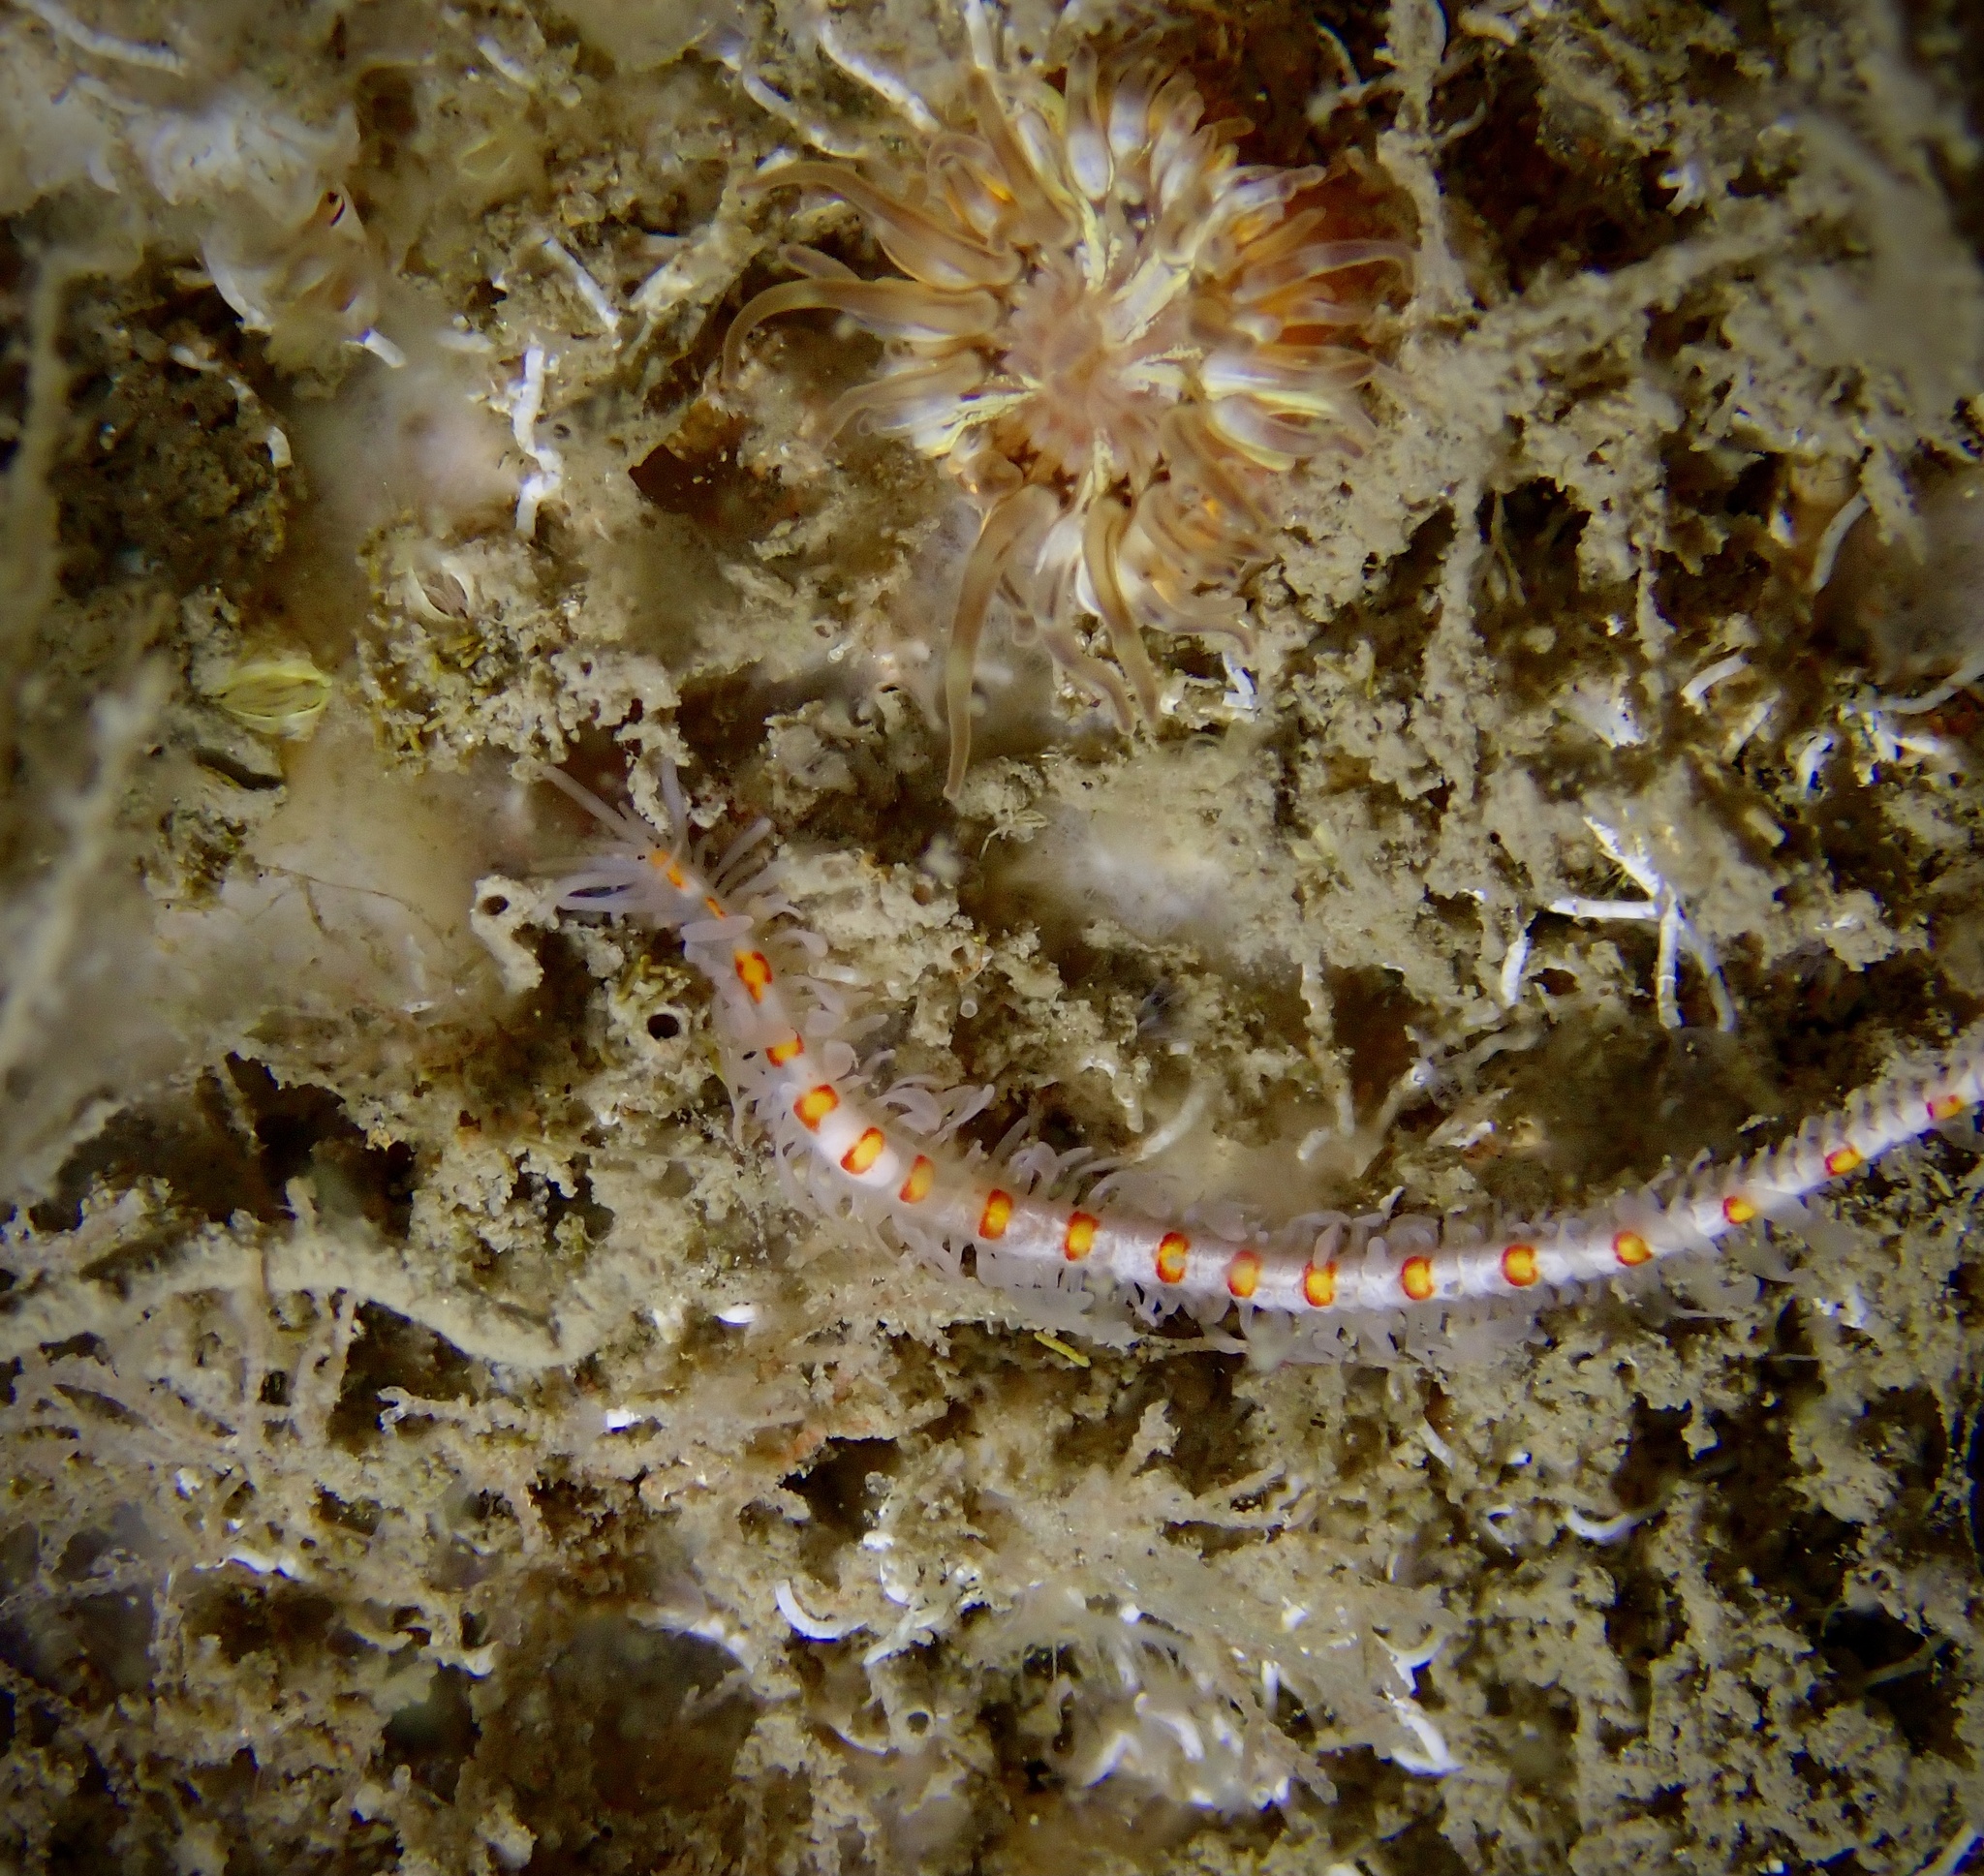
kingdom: Animalia
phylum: Annelida
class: Polychaeta
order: Phyllodocida
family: Syllidae
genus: Myrianida
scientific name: Myrianida pinnigera
